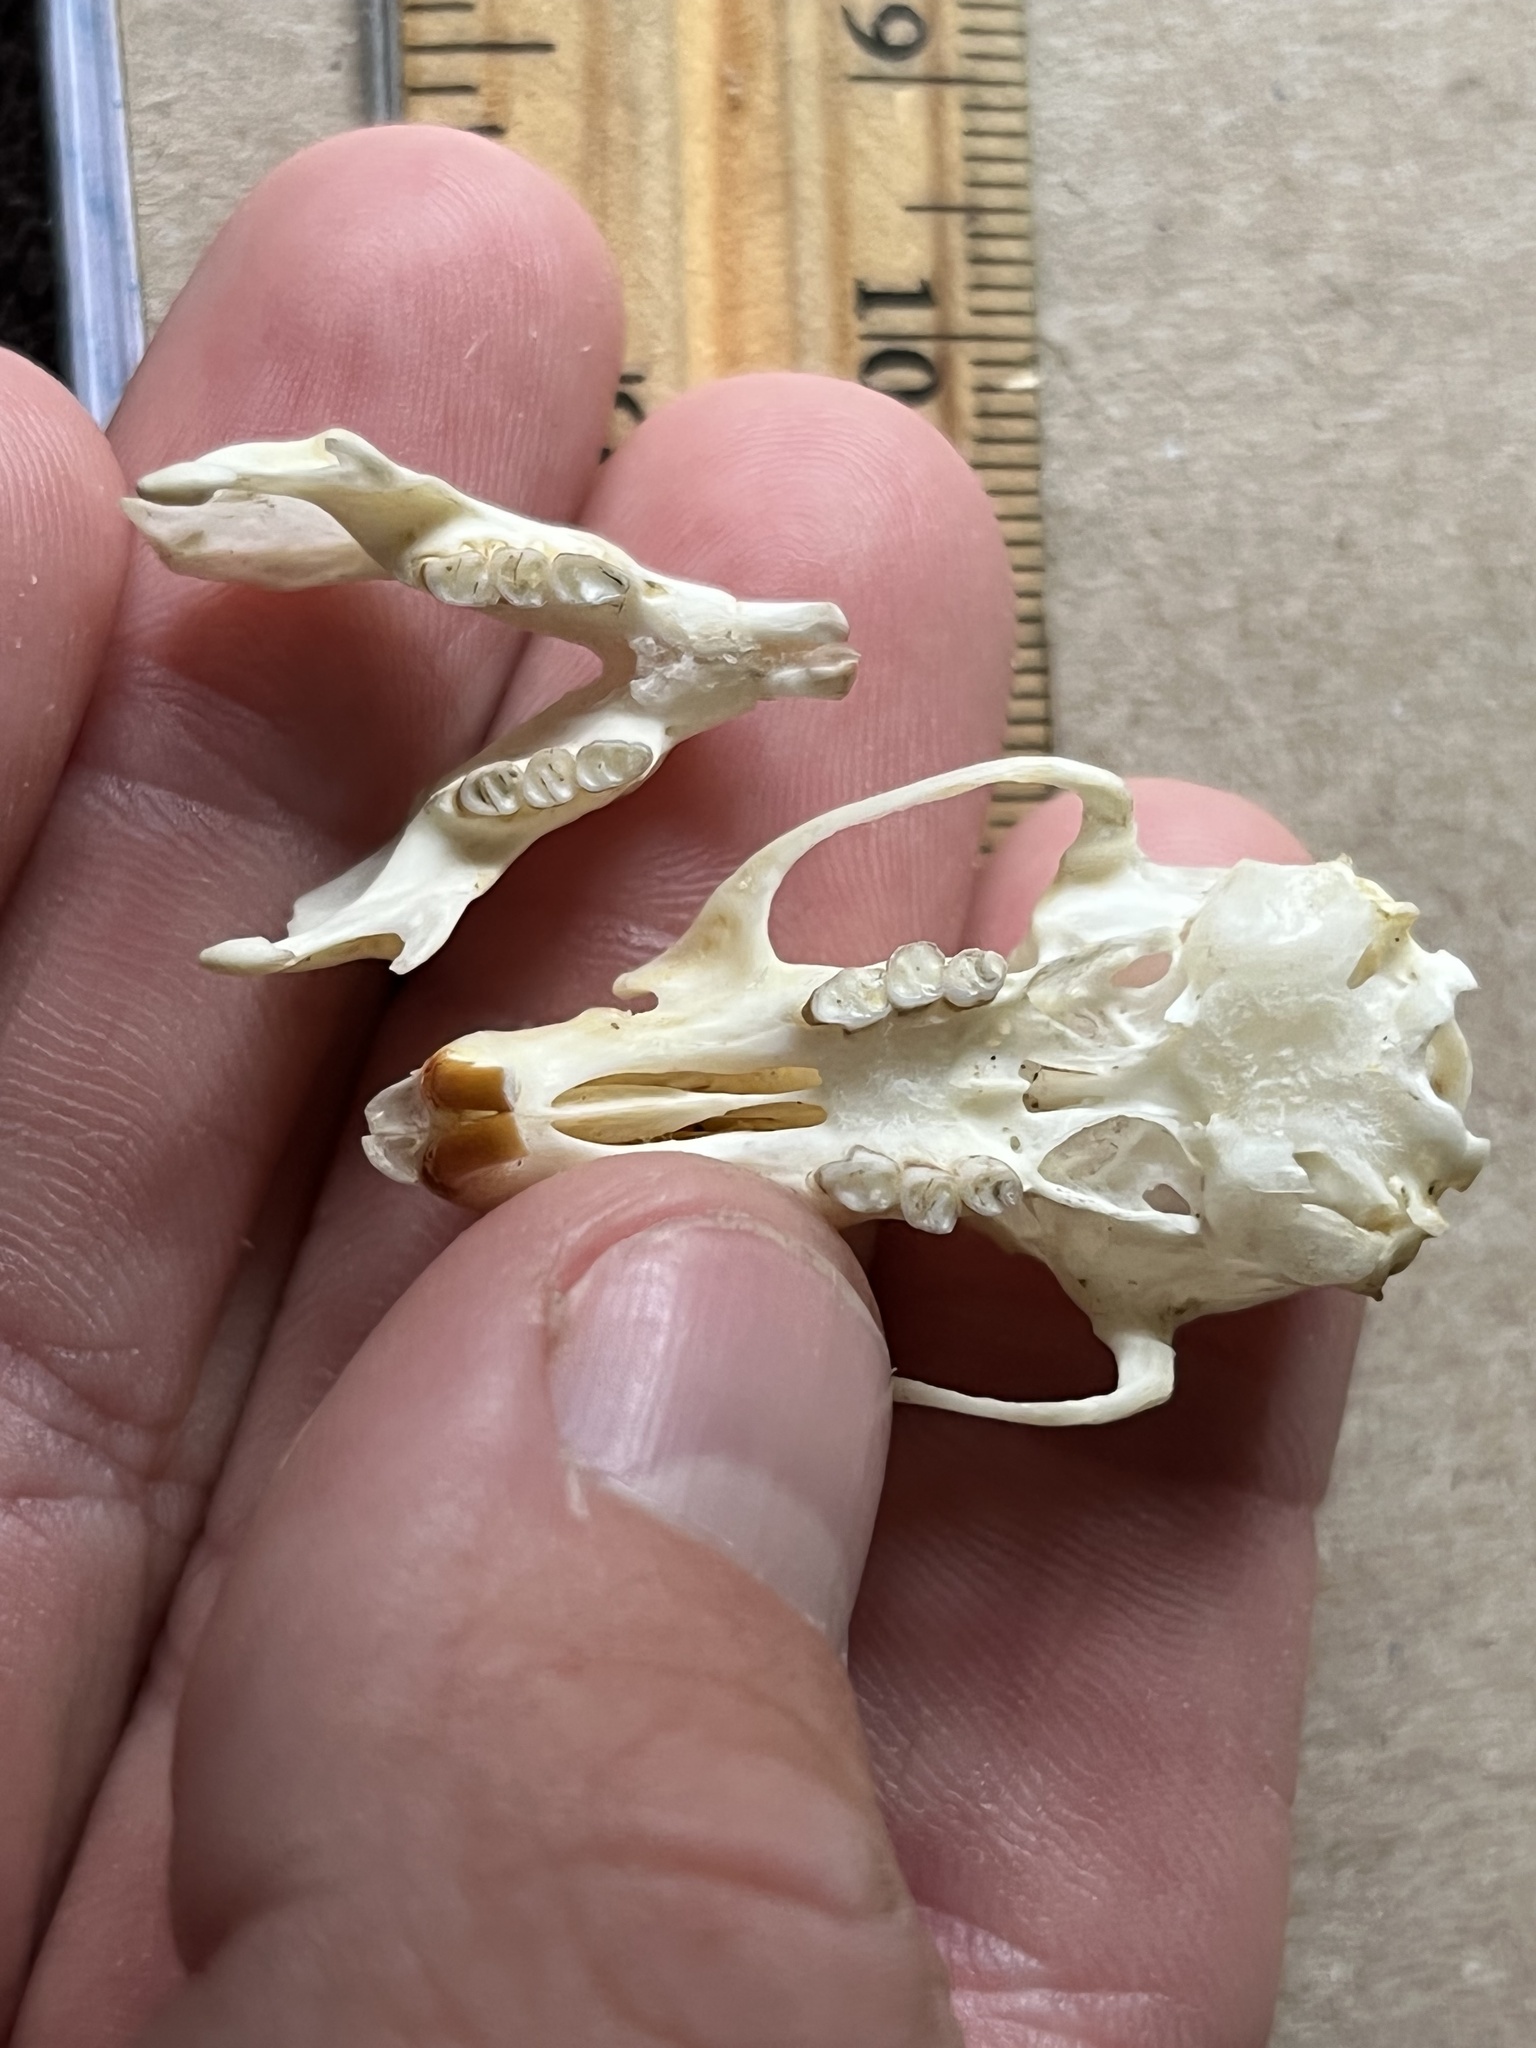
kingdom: Animalia
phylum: Chordata
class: Mammalia
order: Rodentia
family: Cricetidae
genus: Sigmodon
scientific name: Sigmodon hispidus
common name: Hispid cotton rat
